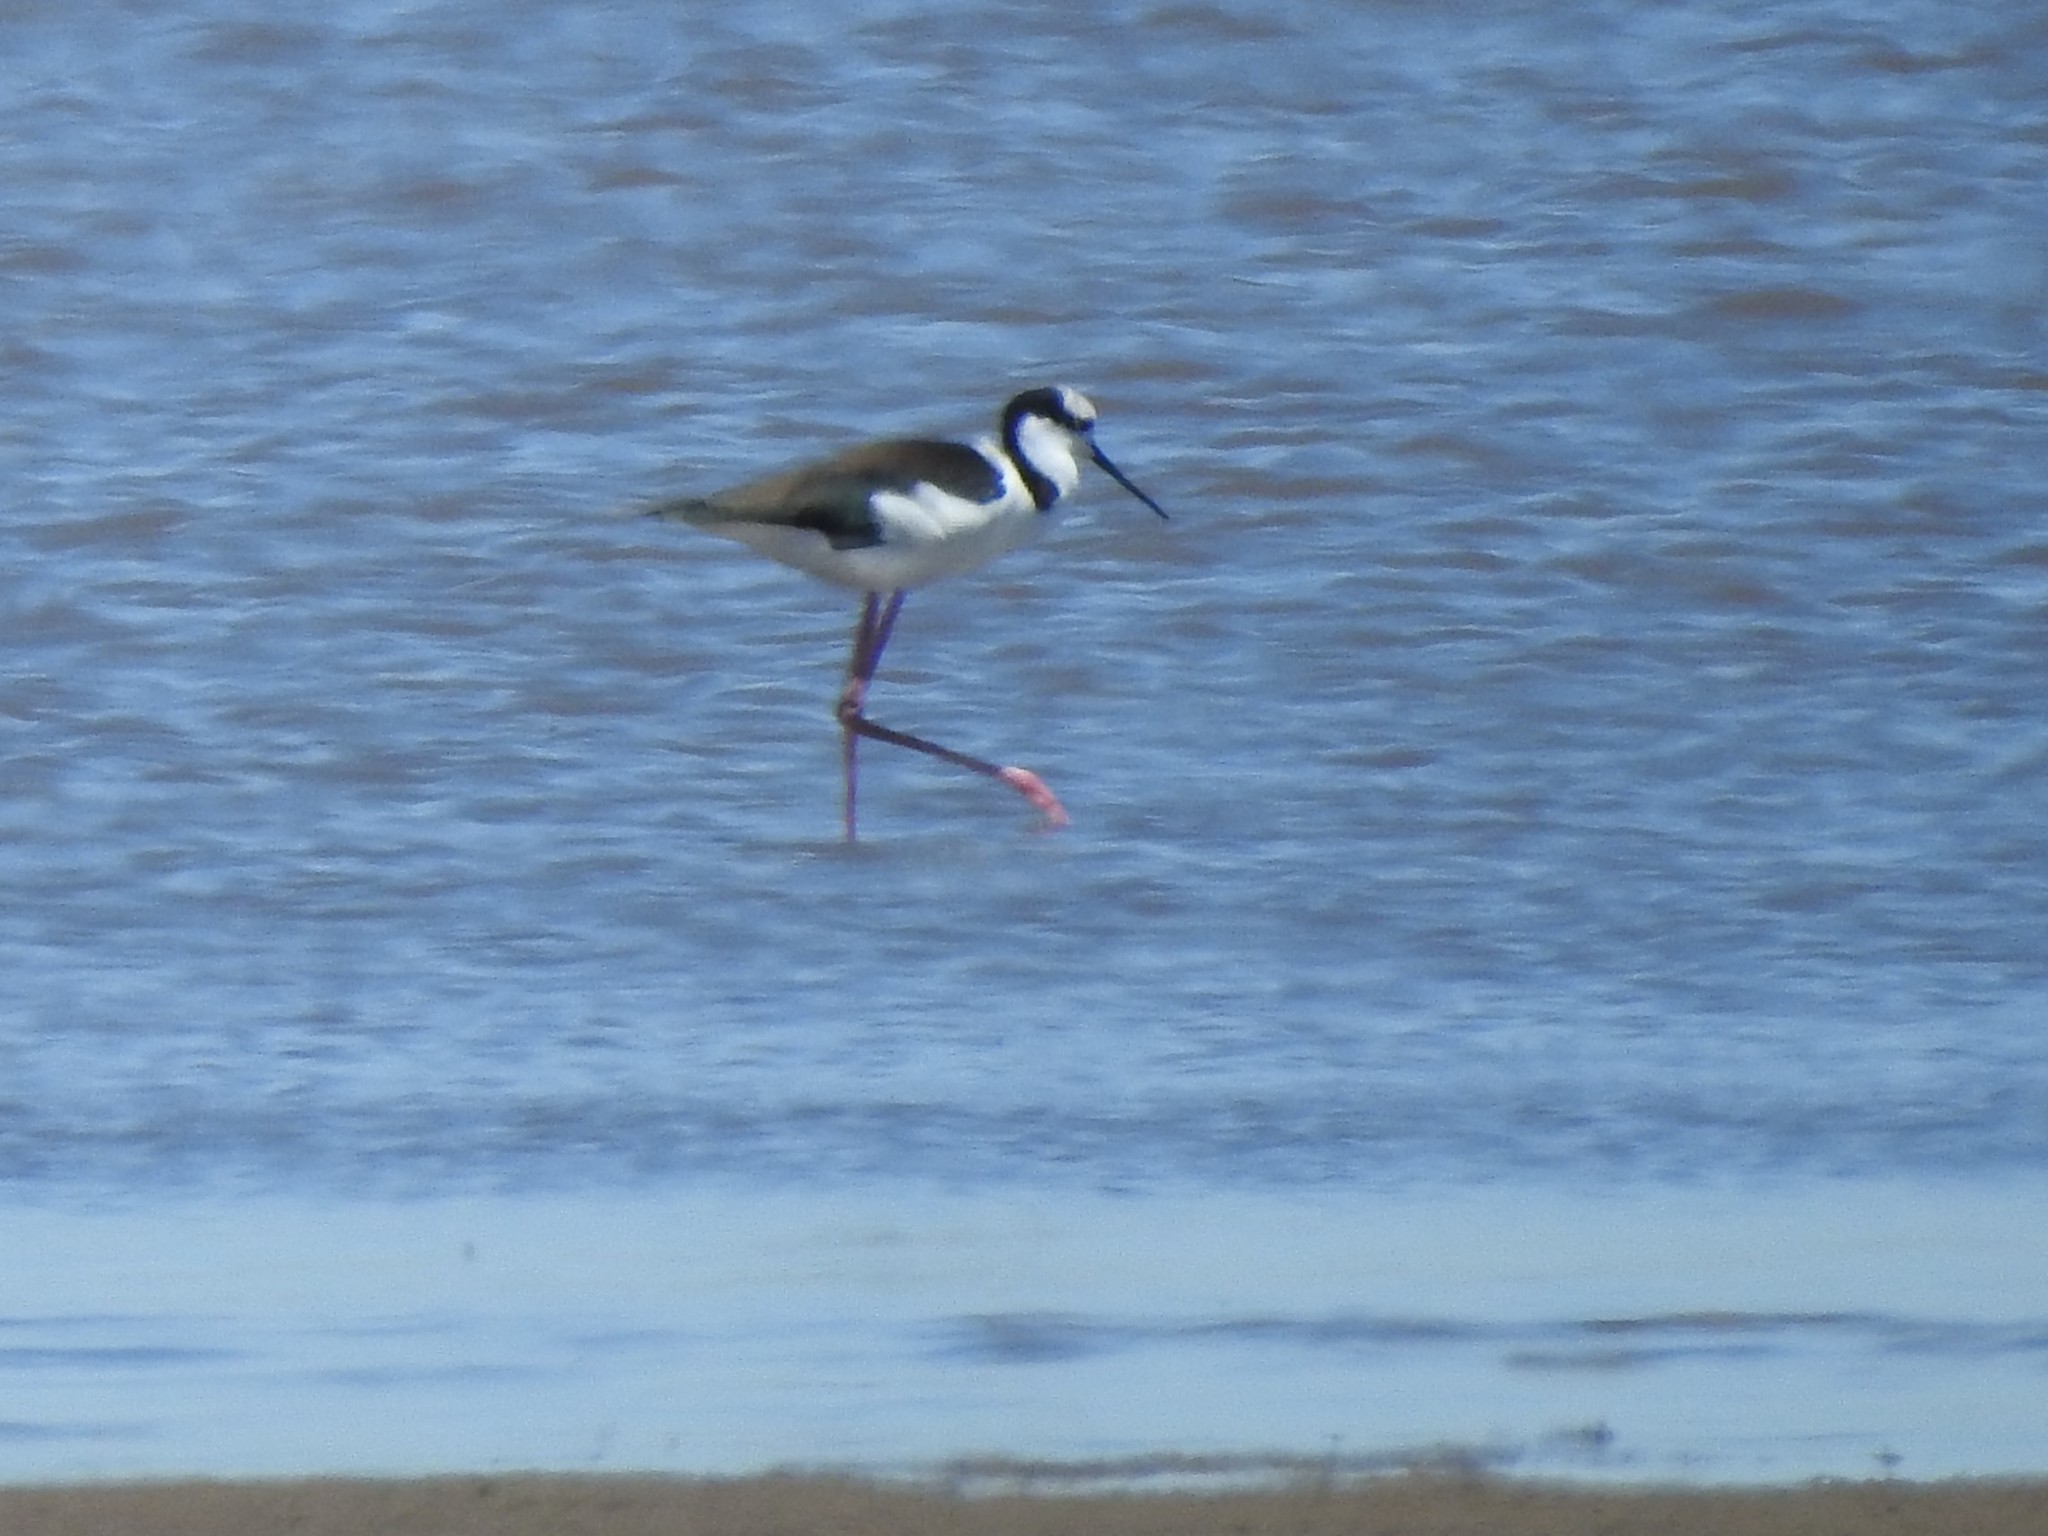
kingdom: Animalia
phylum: Chordata
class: Aves
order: Charadriiformes
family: Recurvirostridae
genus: Himantopus
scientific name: Himantopus mexicanus
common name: Black-necked stilt
